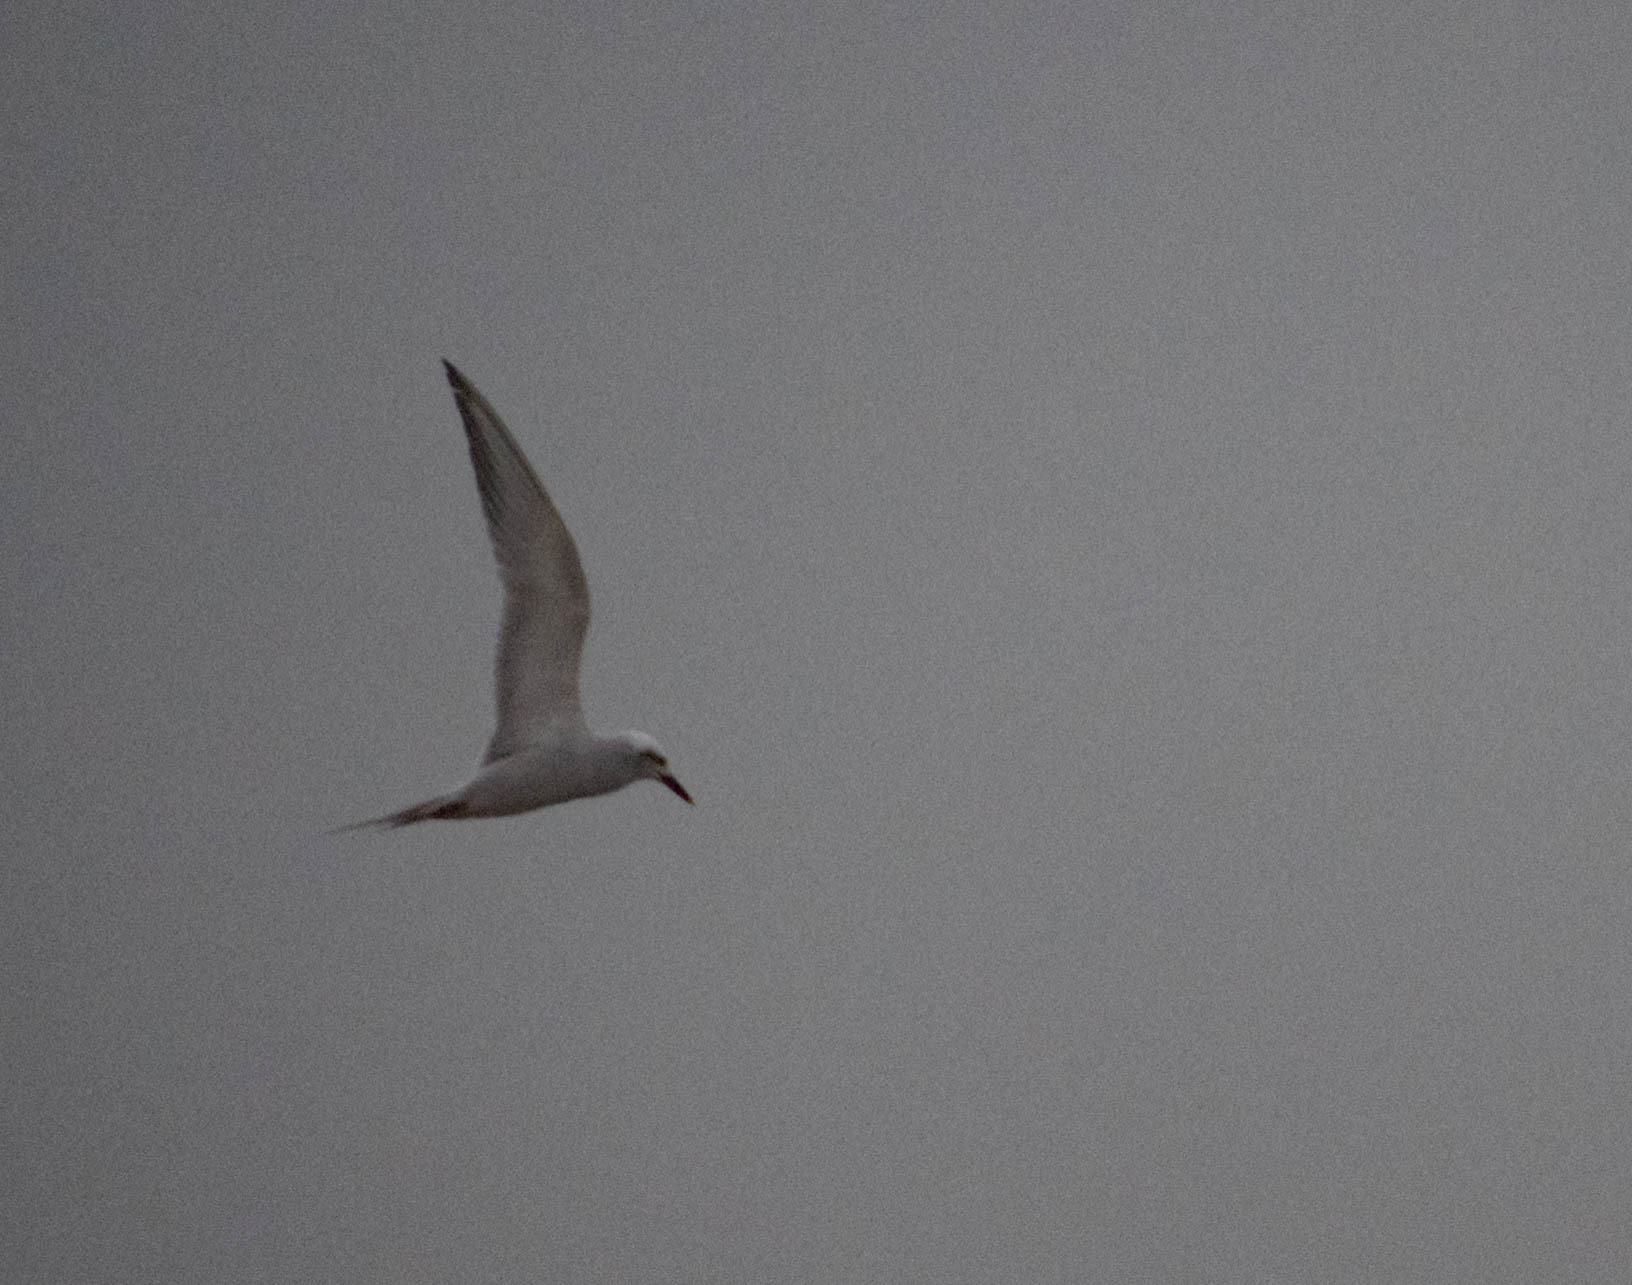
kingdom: Animalia
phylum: Chordata
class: Aves
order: Charadriiformes
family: Laridae
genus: Sterna
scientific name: Sterna trudeaui
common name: Snowy-crowned tern
